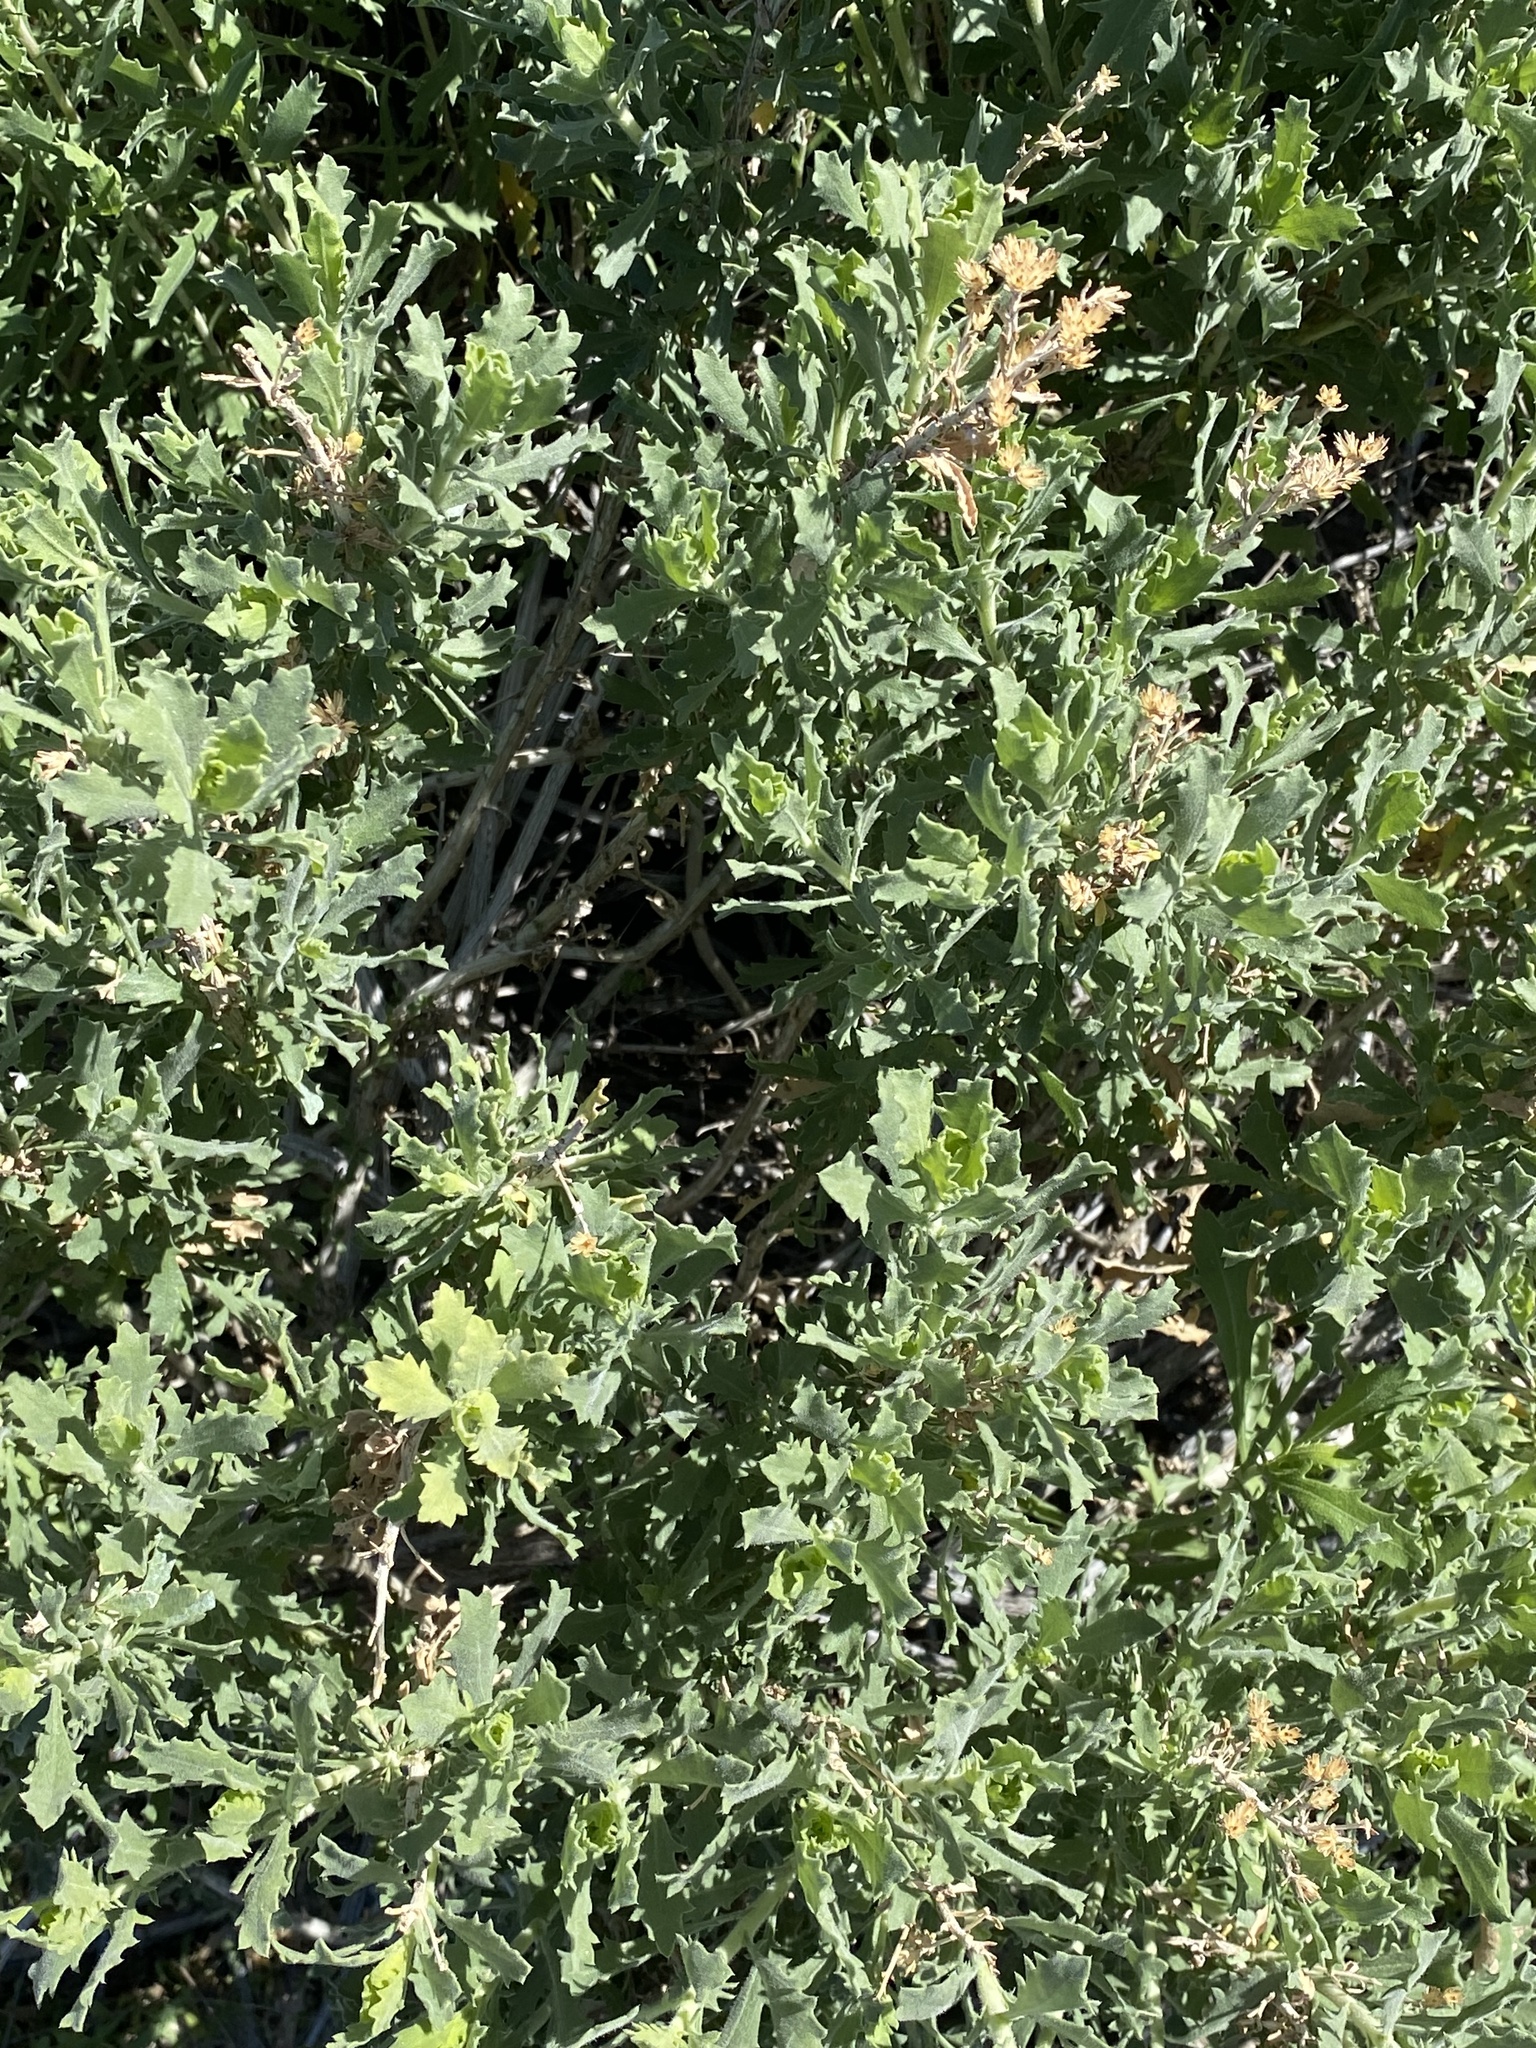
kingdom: Plantae
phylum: Tracheophyta
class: Magnoliopsida
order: Asterales
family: Asteraceae
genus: Isocoma
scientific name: Isocoma acradenia
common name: Alkali jimmyweed
